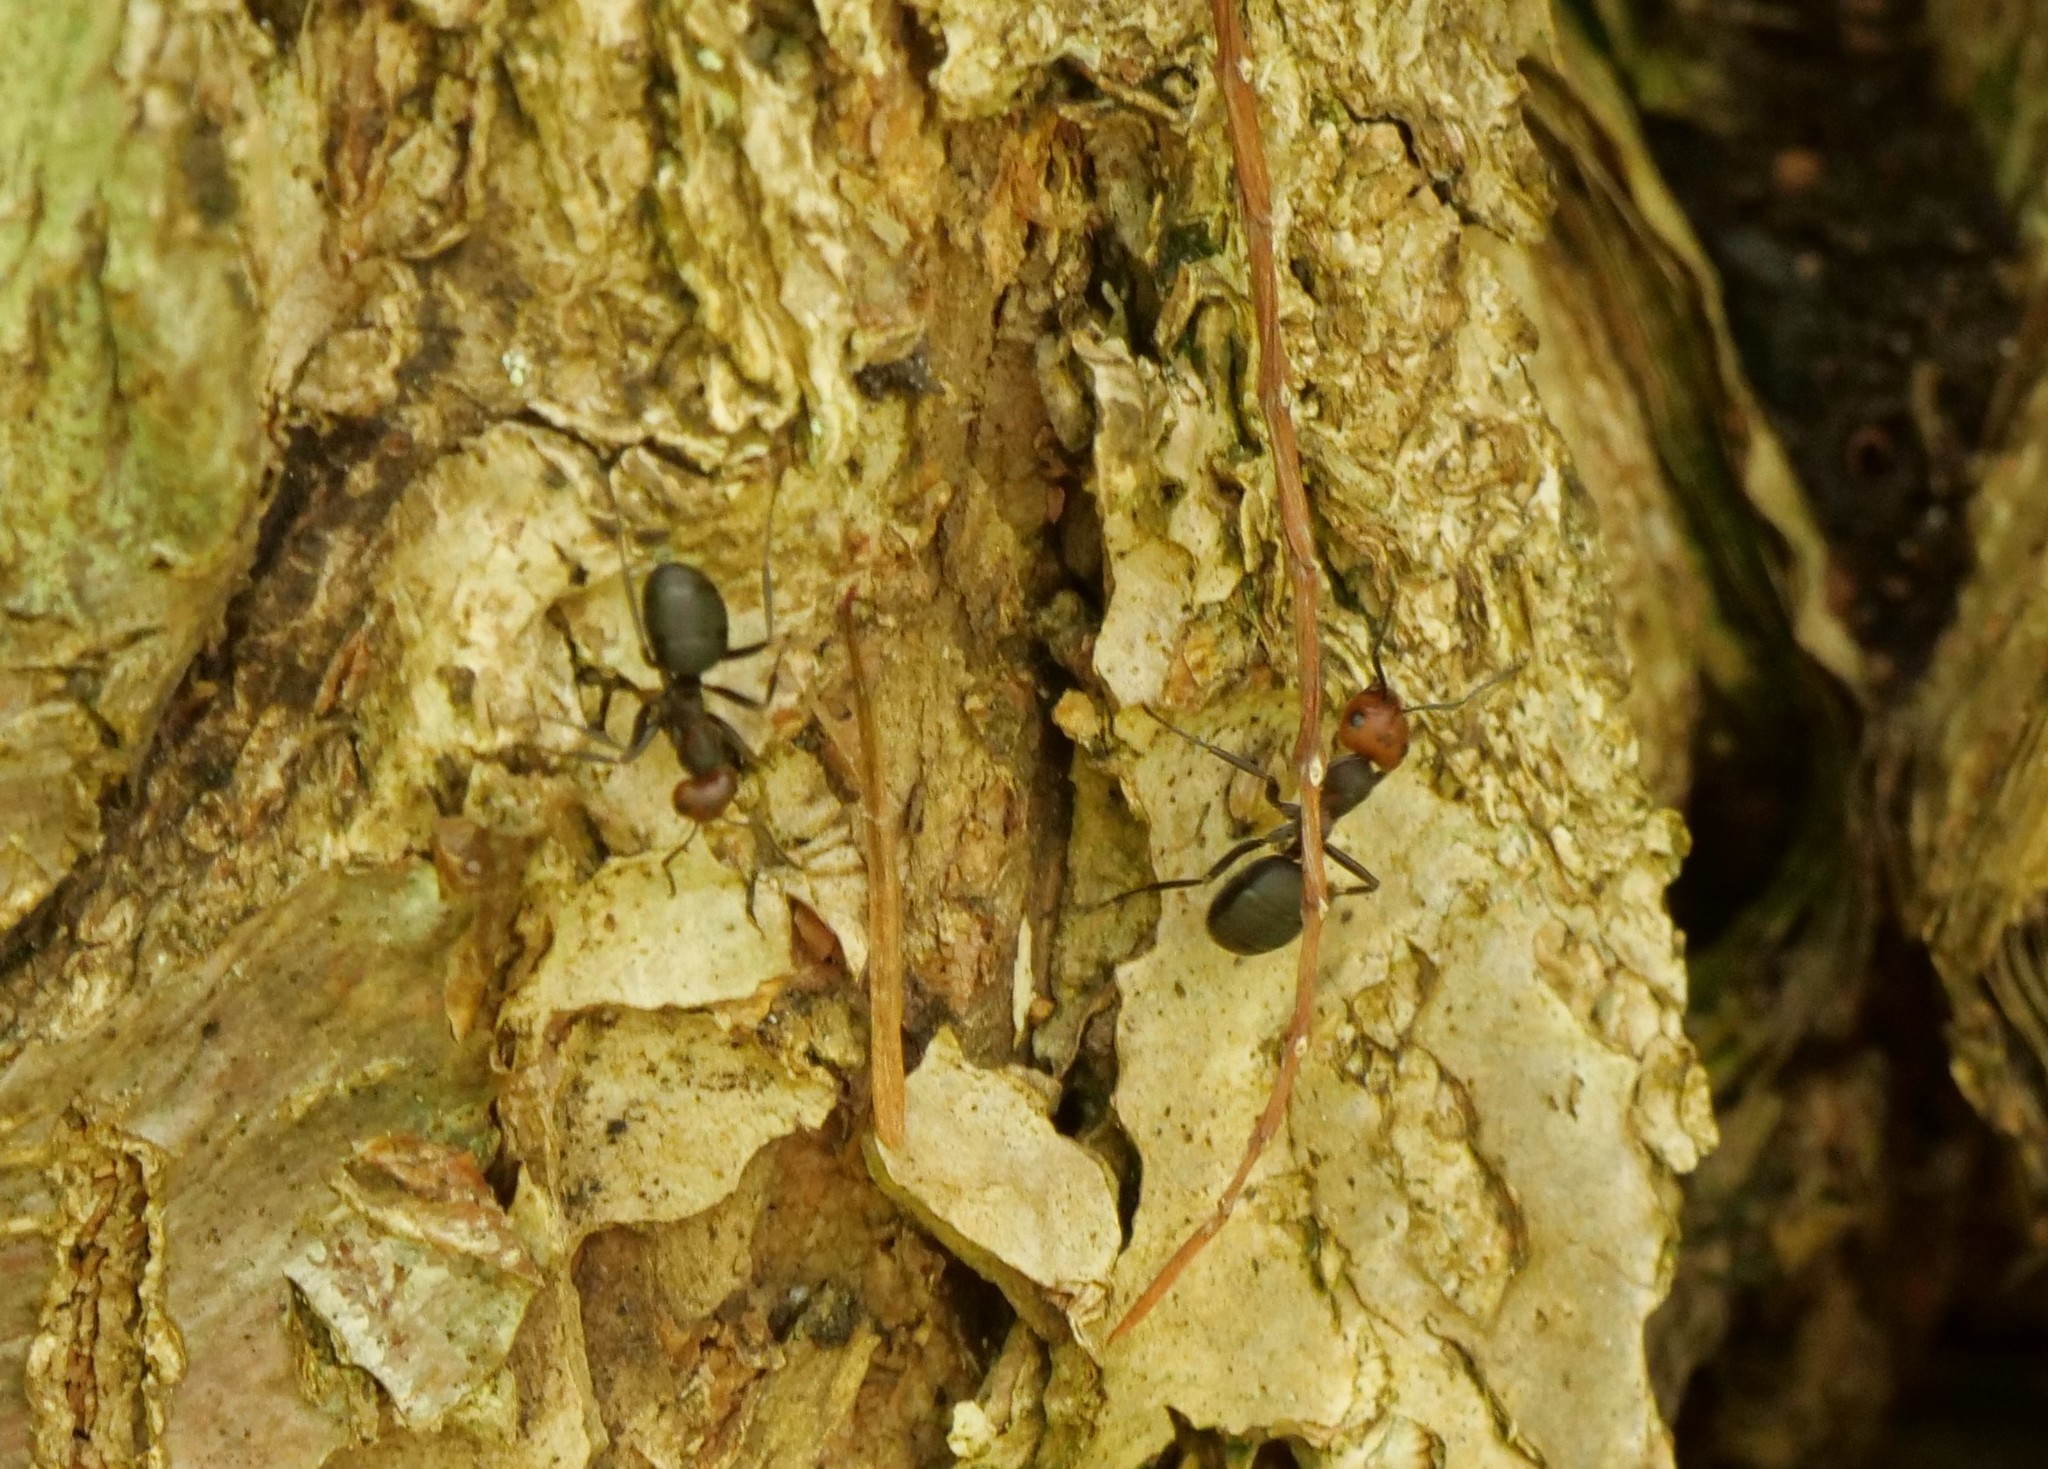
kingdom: Animalia
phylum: Arthropoda
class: Insecta
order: Hymenoptera
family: Formicidae
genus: Formica
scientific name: Formica obscuripes
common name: Western thatching ant
